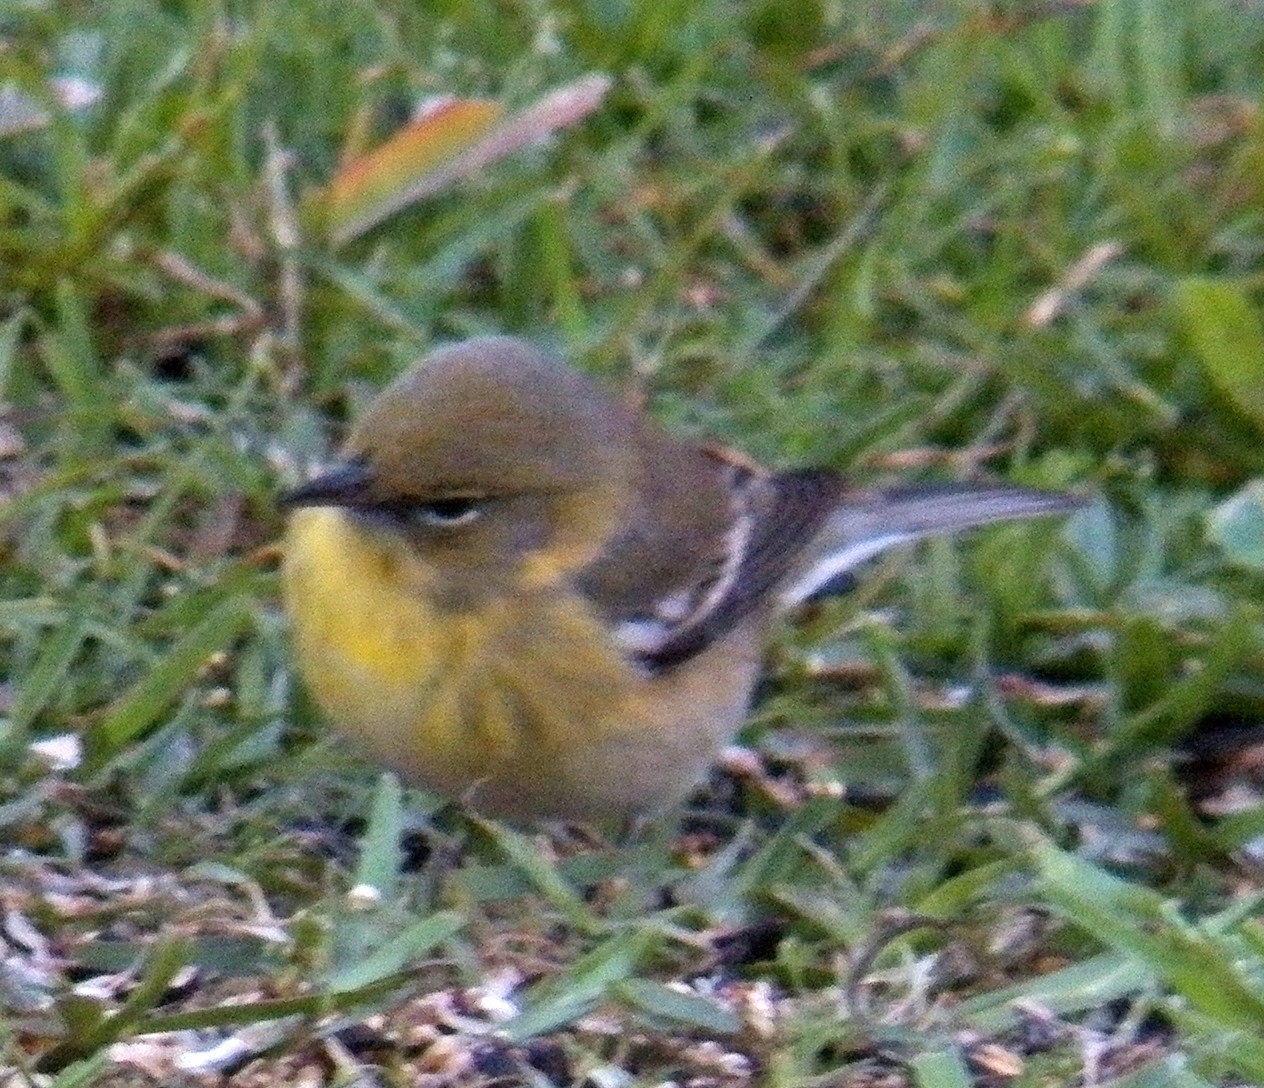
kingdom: Animalia
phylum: Chordata
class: Aves
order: Passeriformes
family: Parulidae
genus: Setophaga
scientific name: Setophaga pinus
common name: Pine warbler
